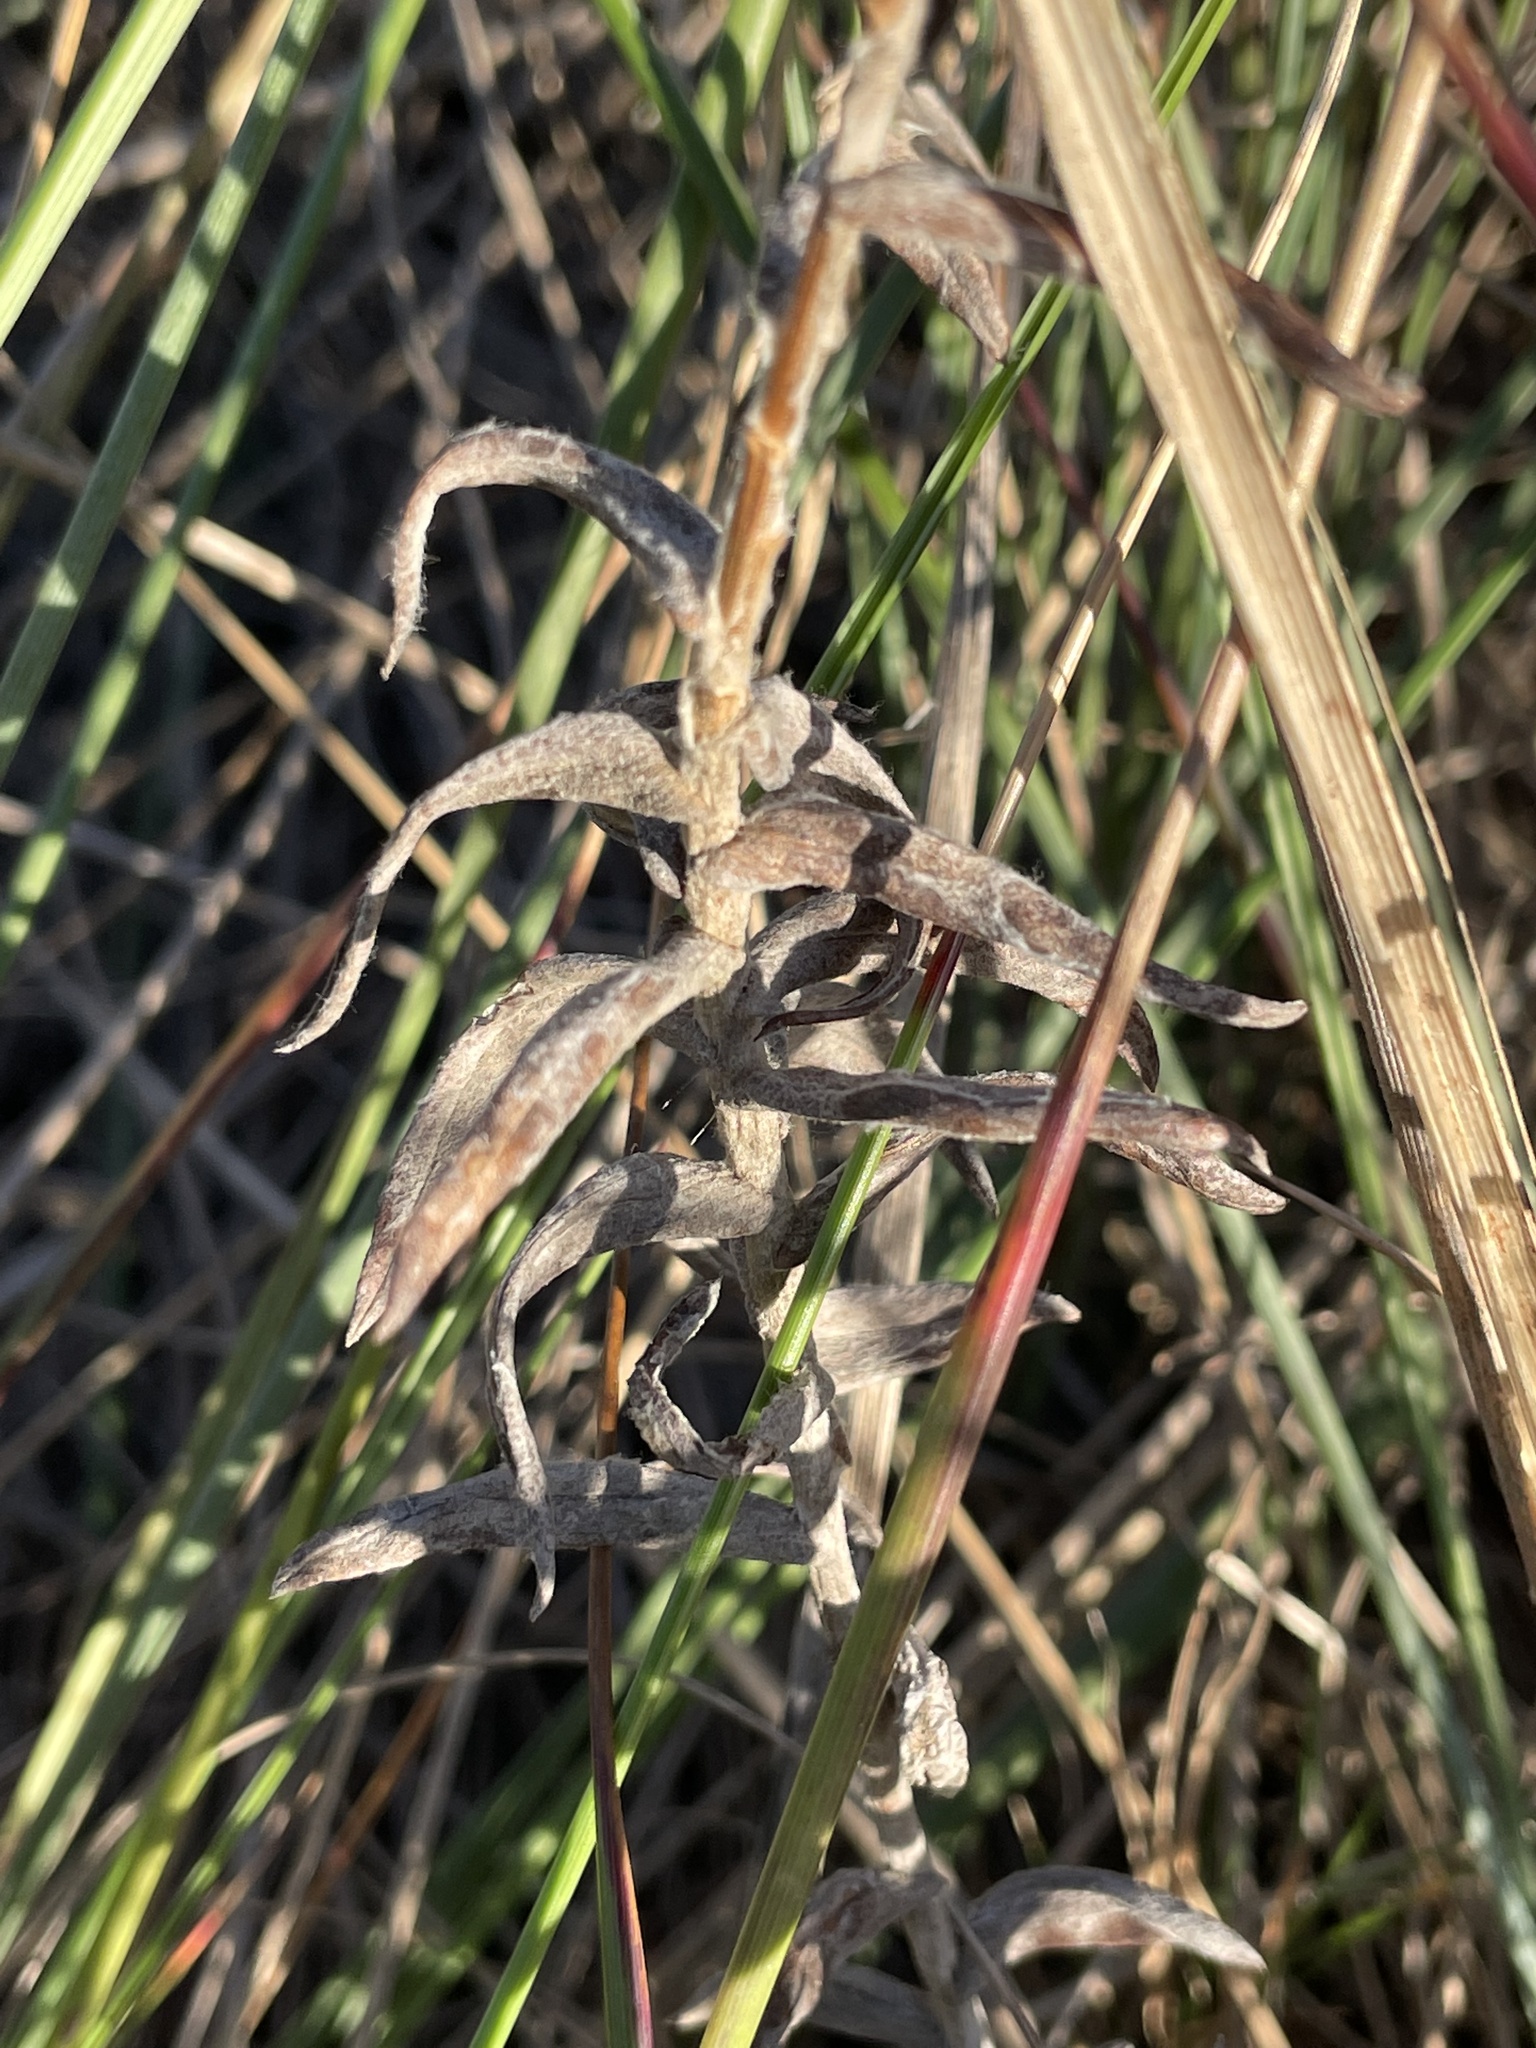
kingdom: Plantae
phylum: Tracheophyta
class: Magnoliopsida
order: Asterales
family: Asteraceae
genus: Anaphalis
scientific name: Anaphalis margaritacea
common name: Pearly everlasting
